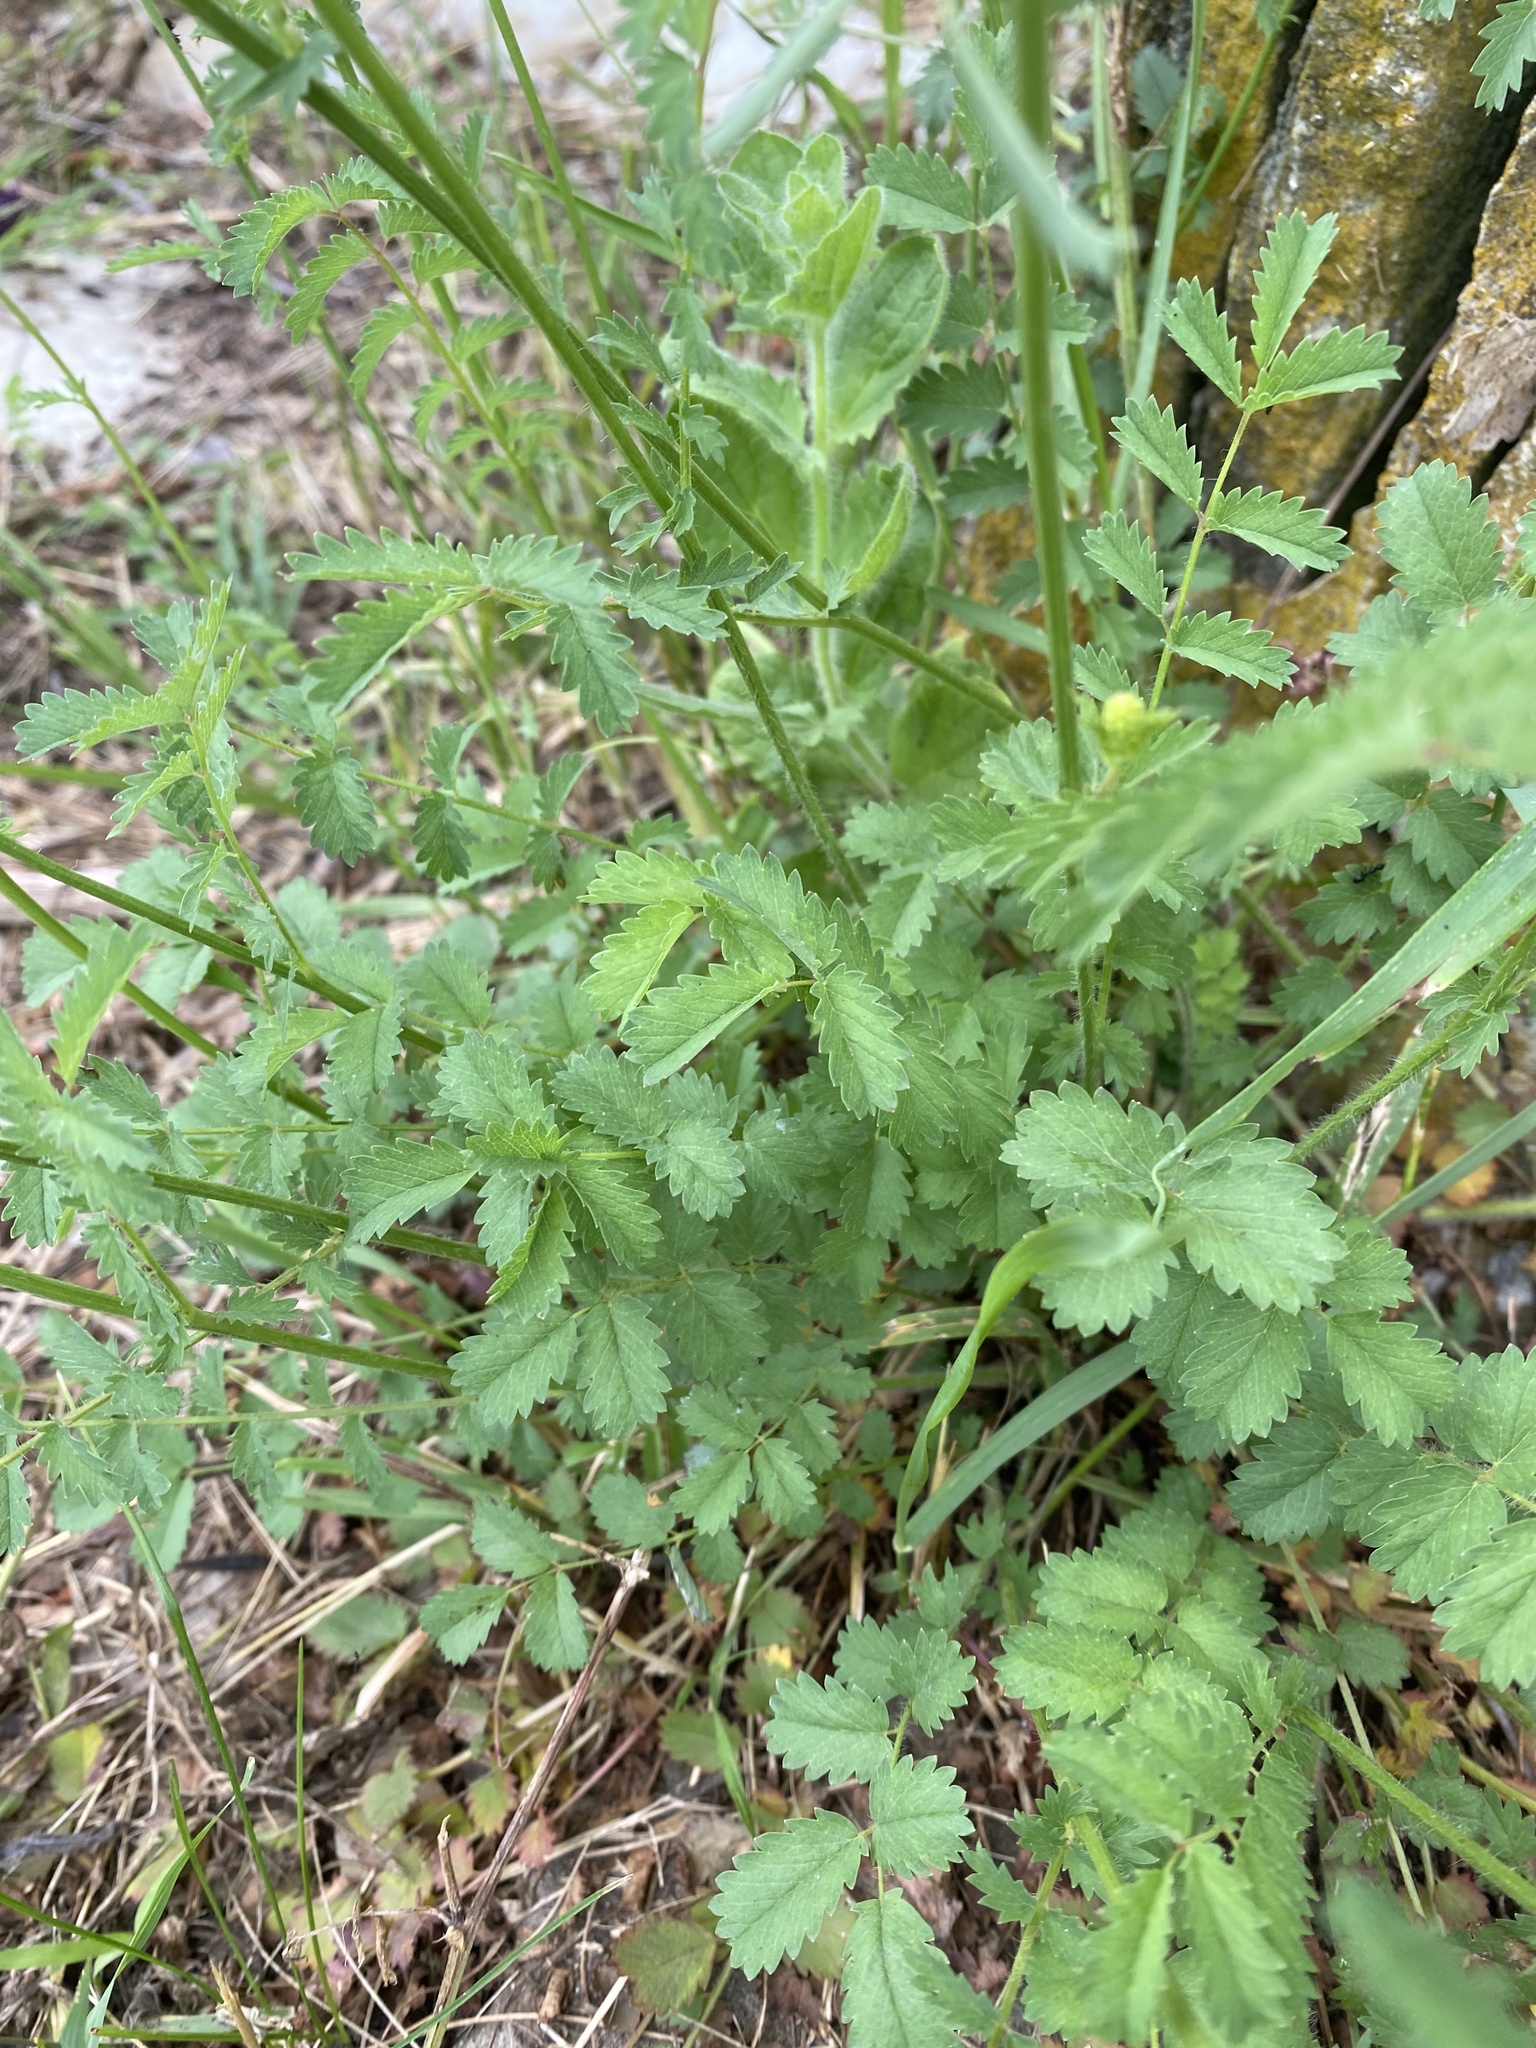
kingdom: Plantae
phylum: Tracheophyta
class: Magnoliopsida
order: Rosales
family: Rosaceae
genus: Poterium
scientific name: Poterium sanguisorba
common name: Salad burnet
